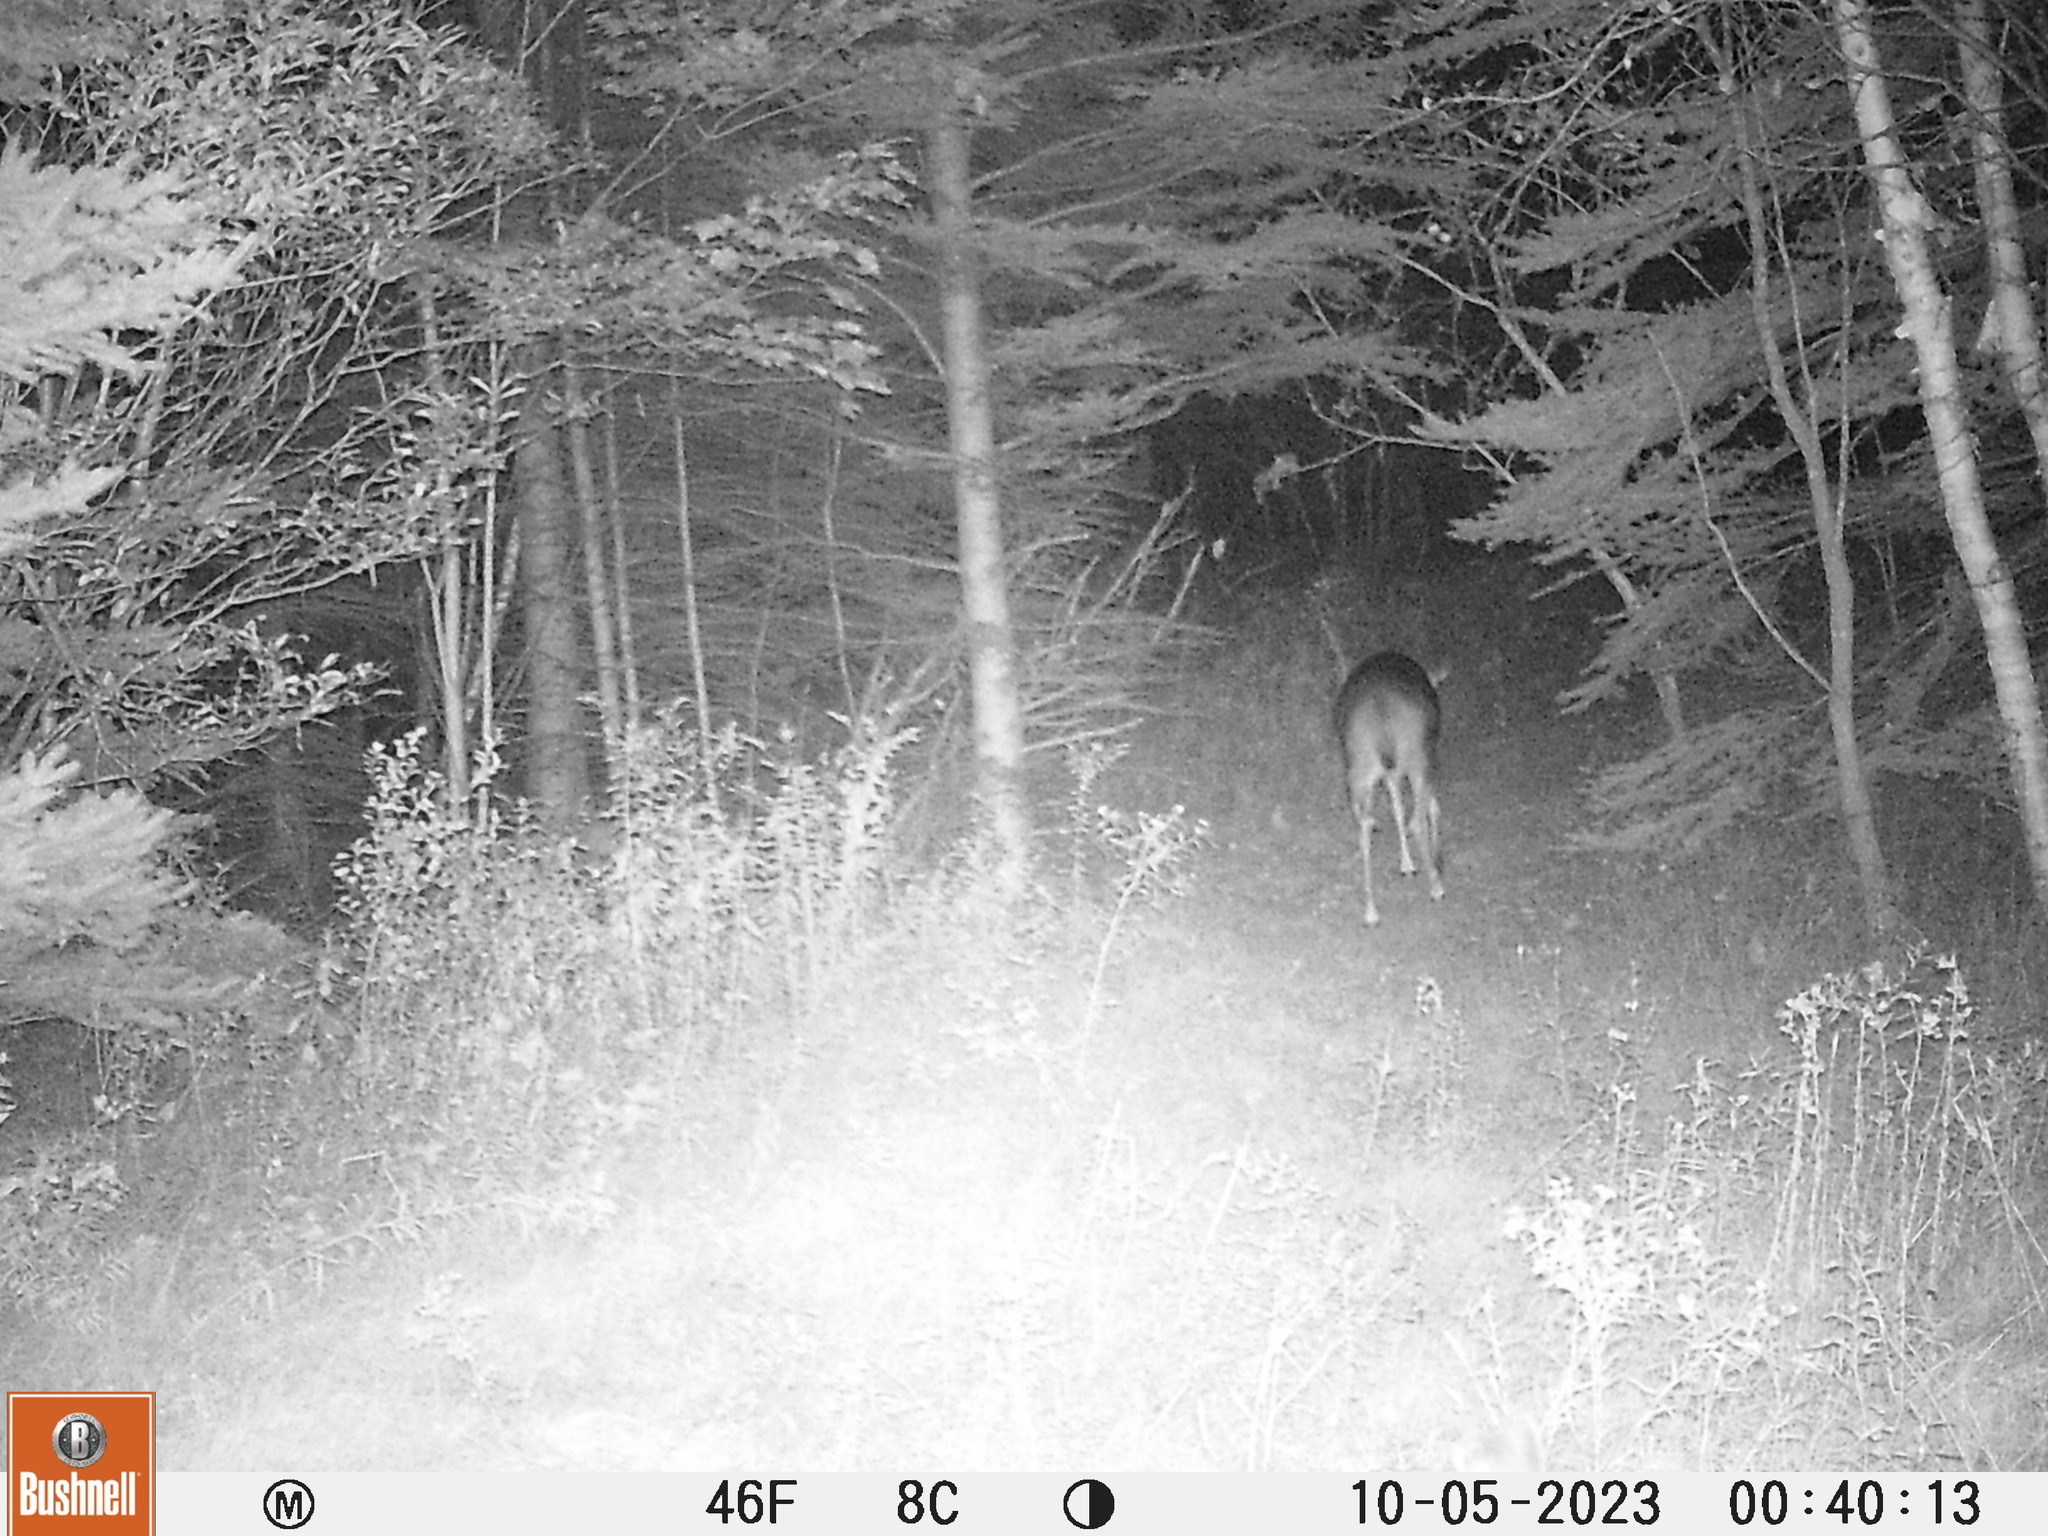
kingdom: Animalia
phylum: Chordata
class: Mammalia
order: Artiodactyla
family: Cervidae
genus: Odocoileus
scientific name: Odocoileus virginianus
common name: White-tailed deer
